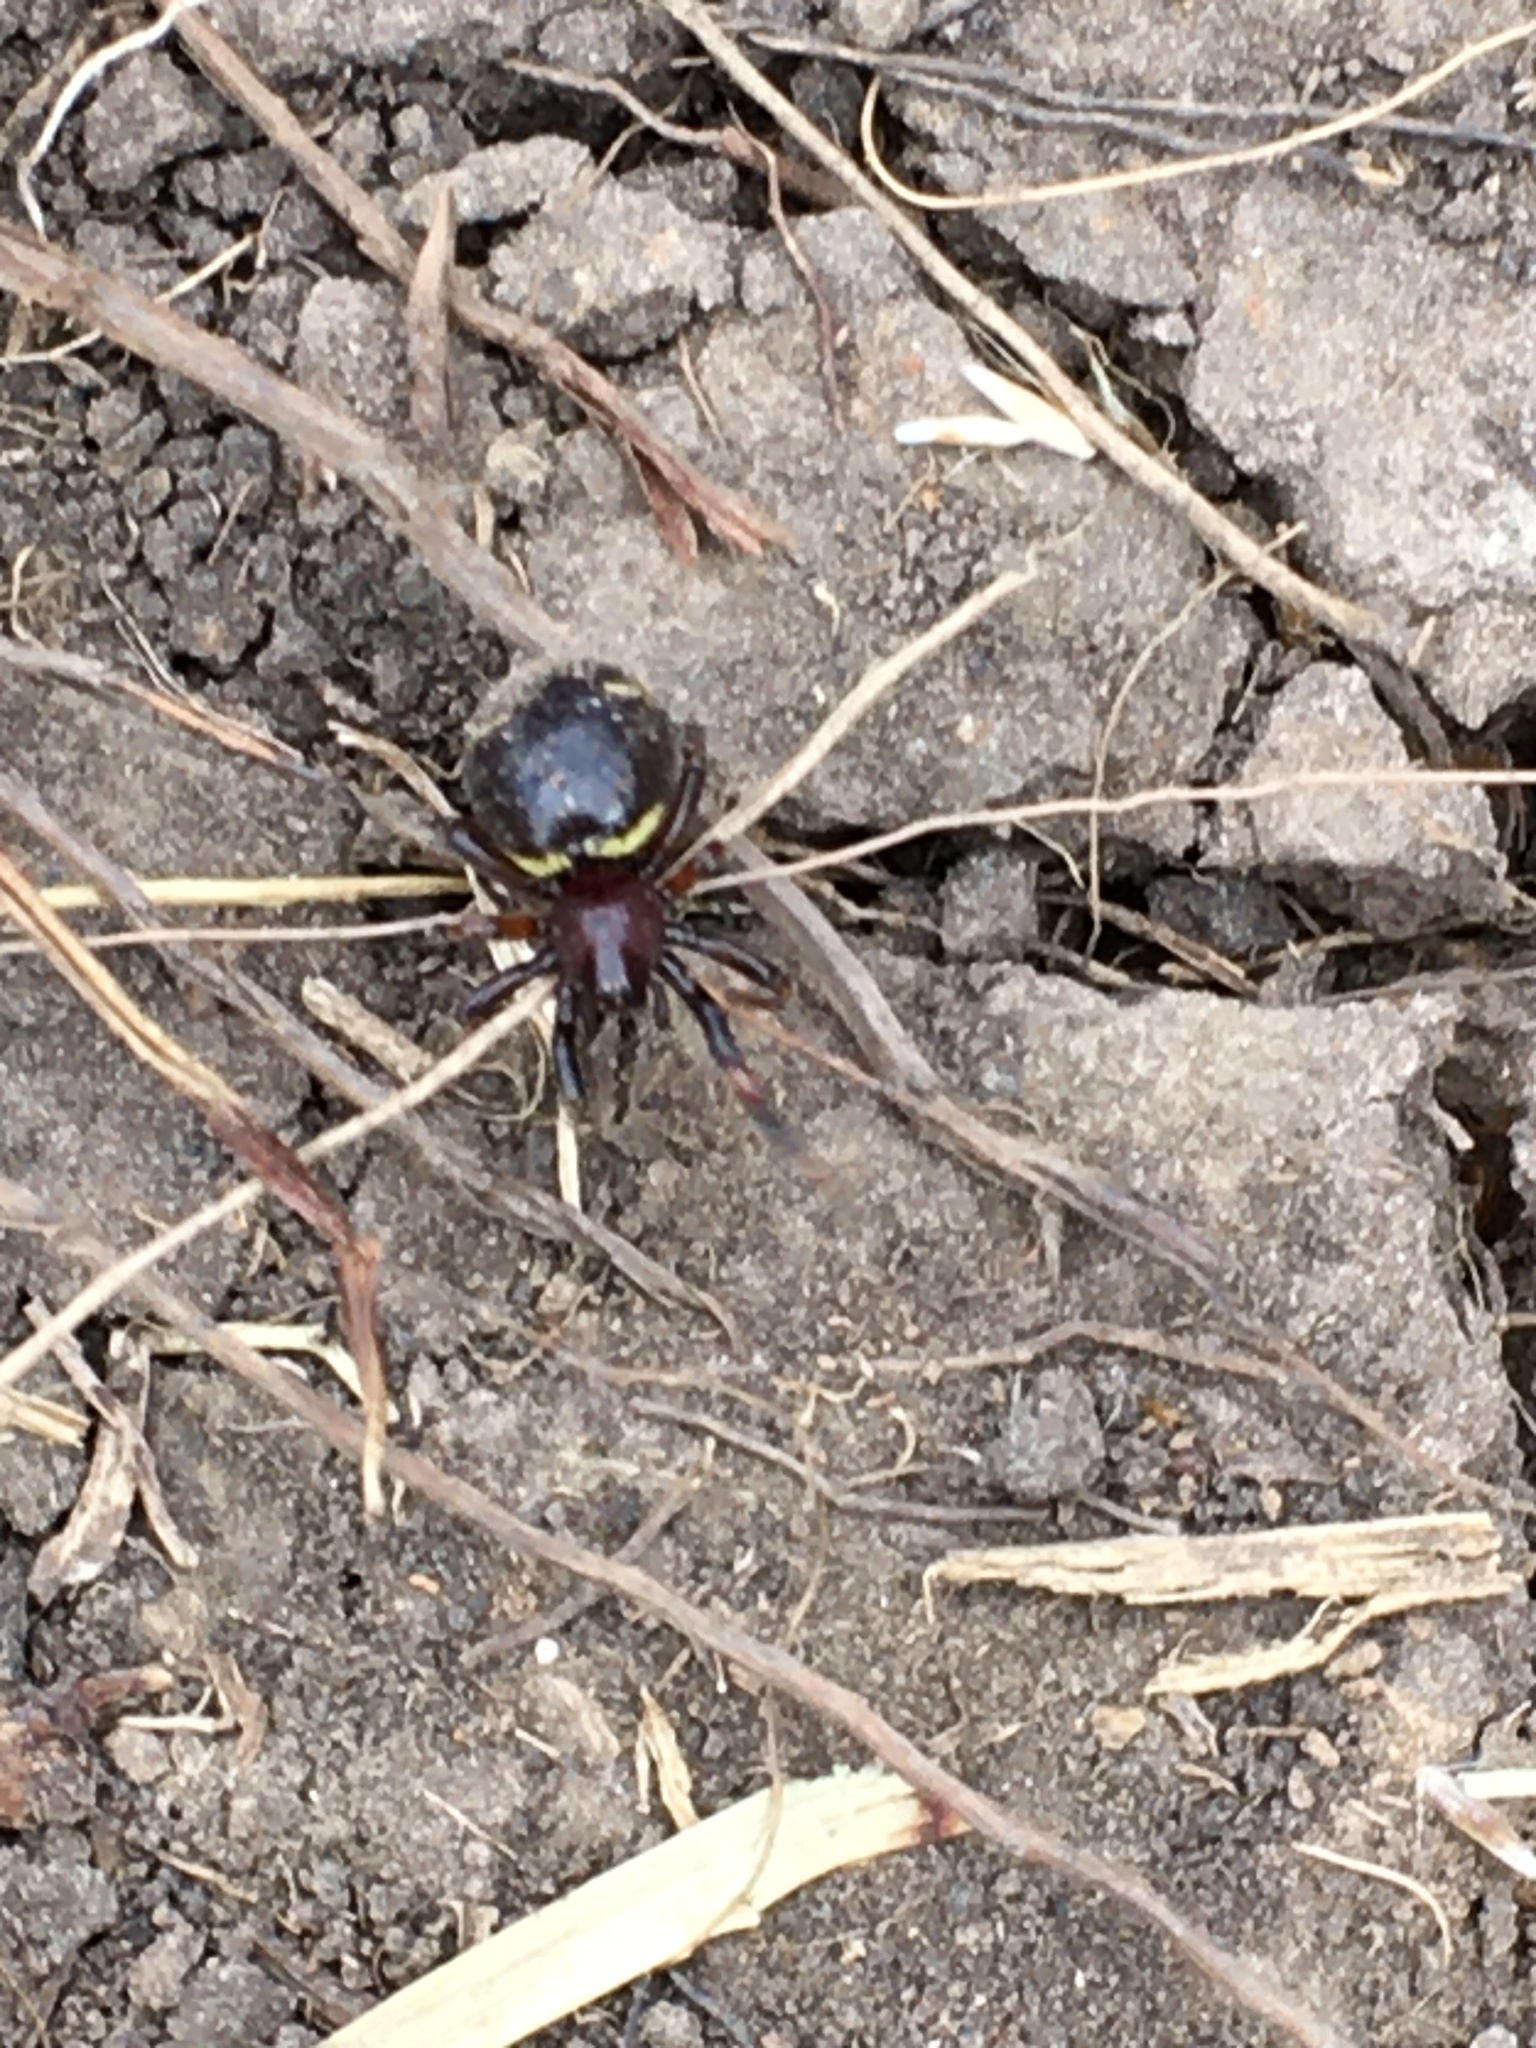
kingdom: Animalia
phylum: Arthropoda
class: Arachnida
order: Araneae
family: Theridiidae
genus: Asagena
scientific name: Asagena phalerata
